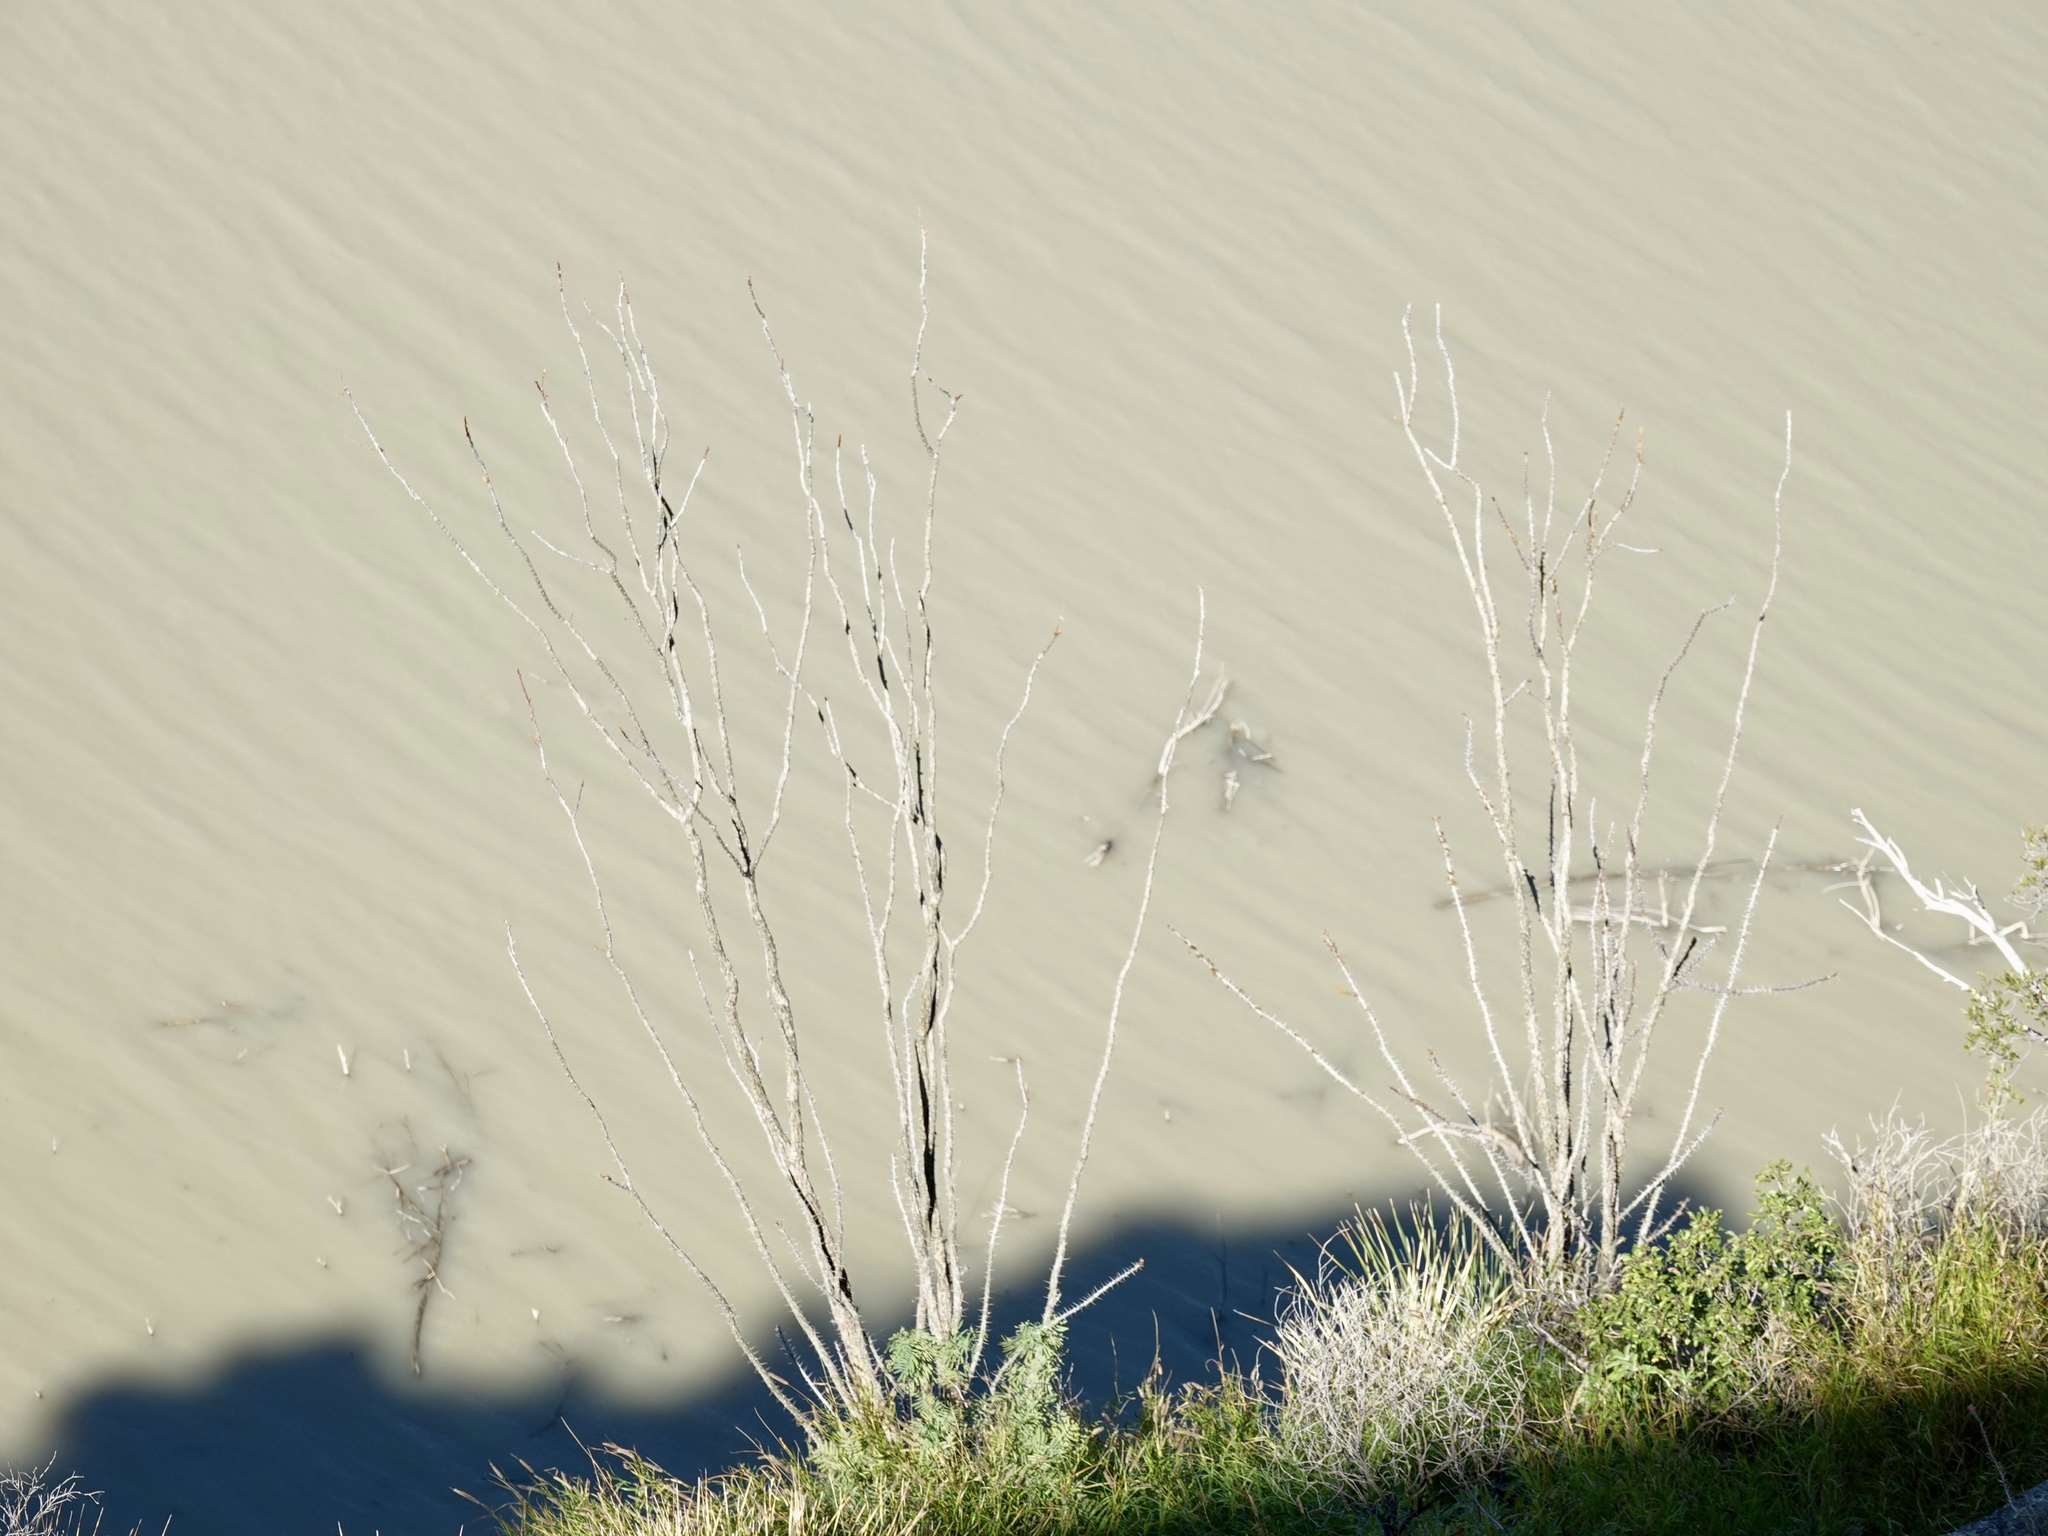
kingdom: Plantae
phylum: Tracheophyta
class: Magnoliopsida
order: Ericales
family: Fouquieriaceae
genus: Fouquieria
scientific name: Fouquieria splendens
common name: Vine-cactus
